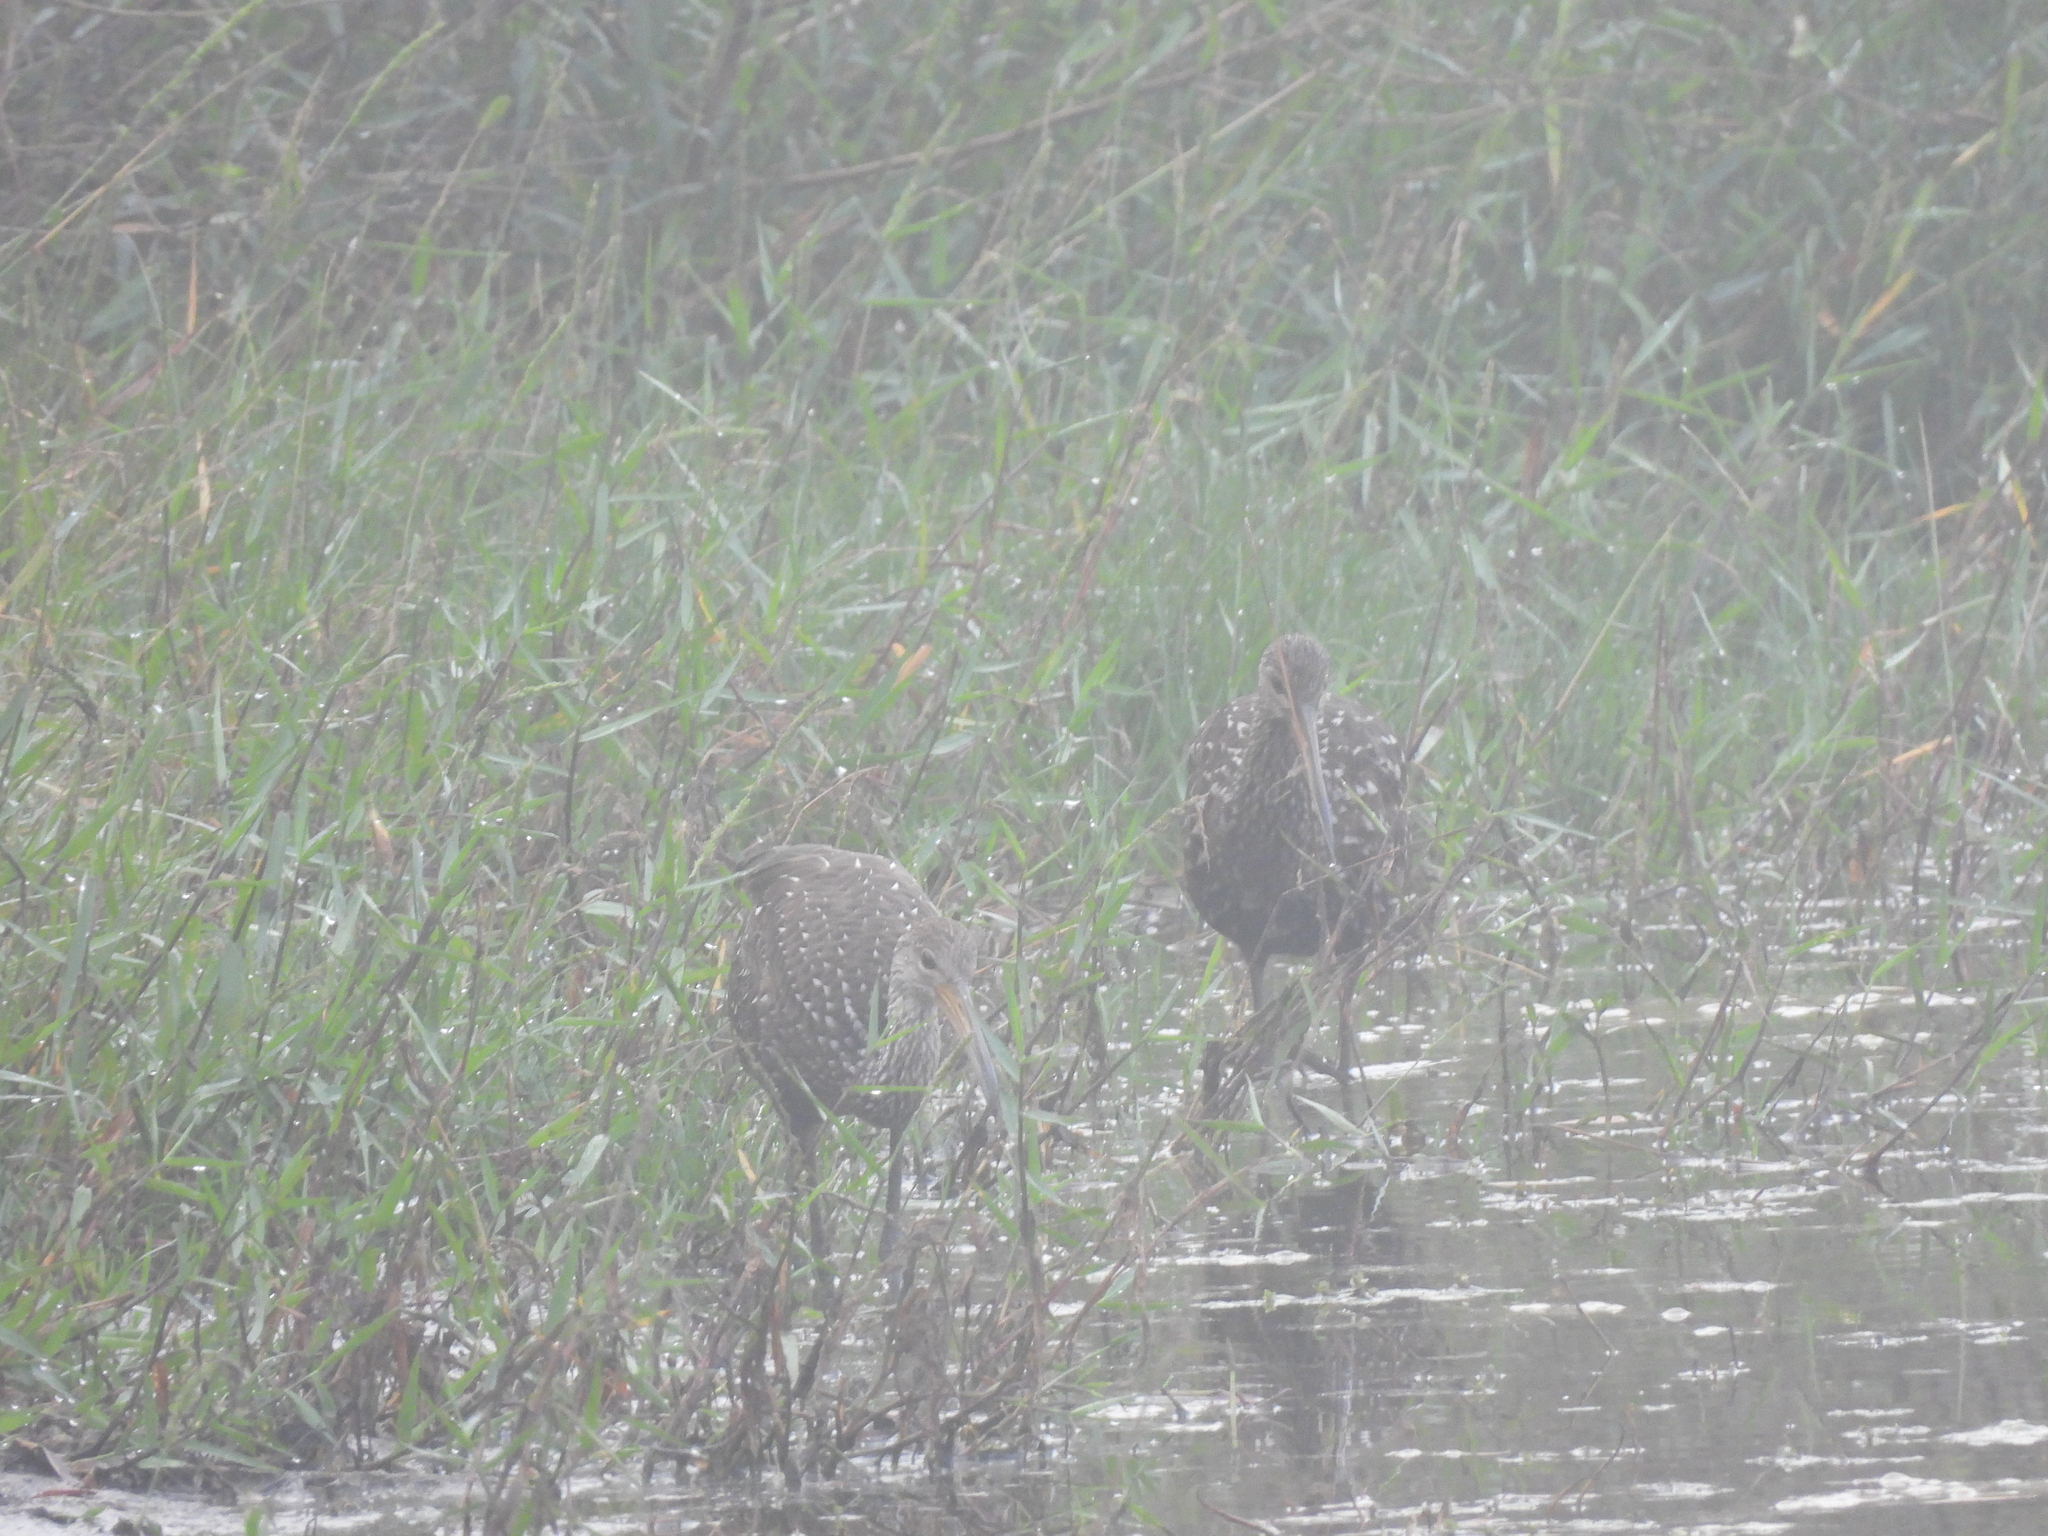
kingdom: Animalia
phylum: Chordata
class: Aves
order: Gruiformes
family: Aramidae
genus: Aramus
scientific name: Aramus guarauna
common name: Limpkin
